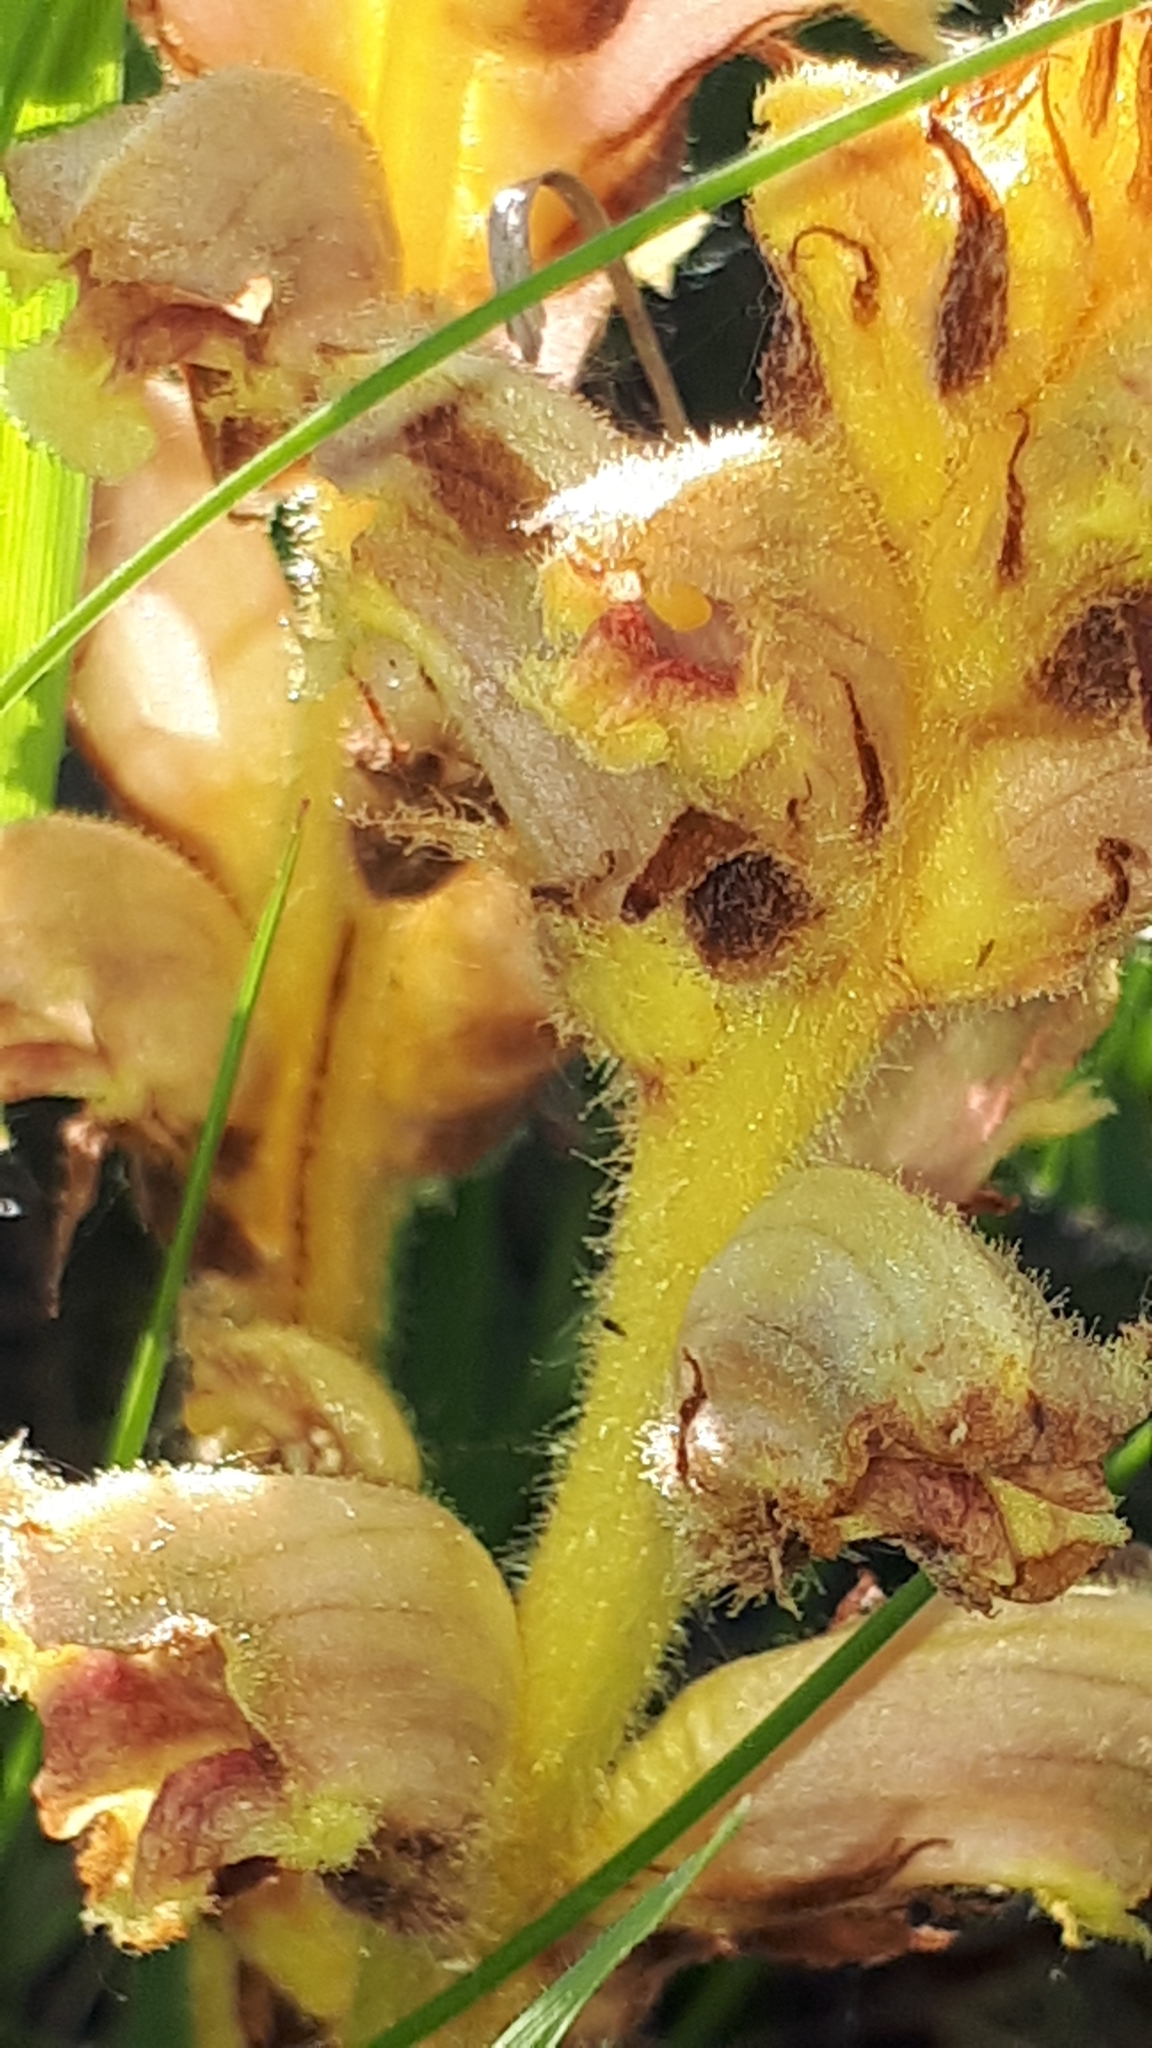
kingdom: Plantae
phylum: Tracheophyta
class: Magnoliopsida
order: Lamiales
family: Orobanchaceae
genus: Orobanche
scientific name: Orobanche lutea
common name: Yellow broomrape
